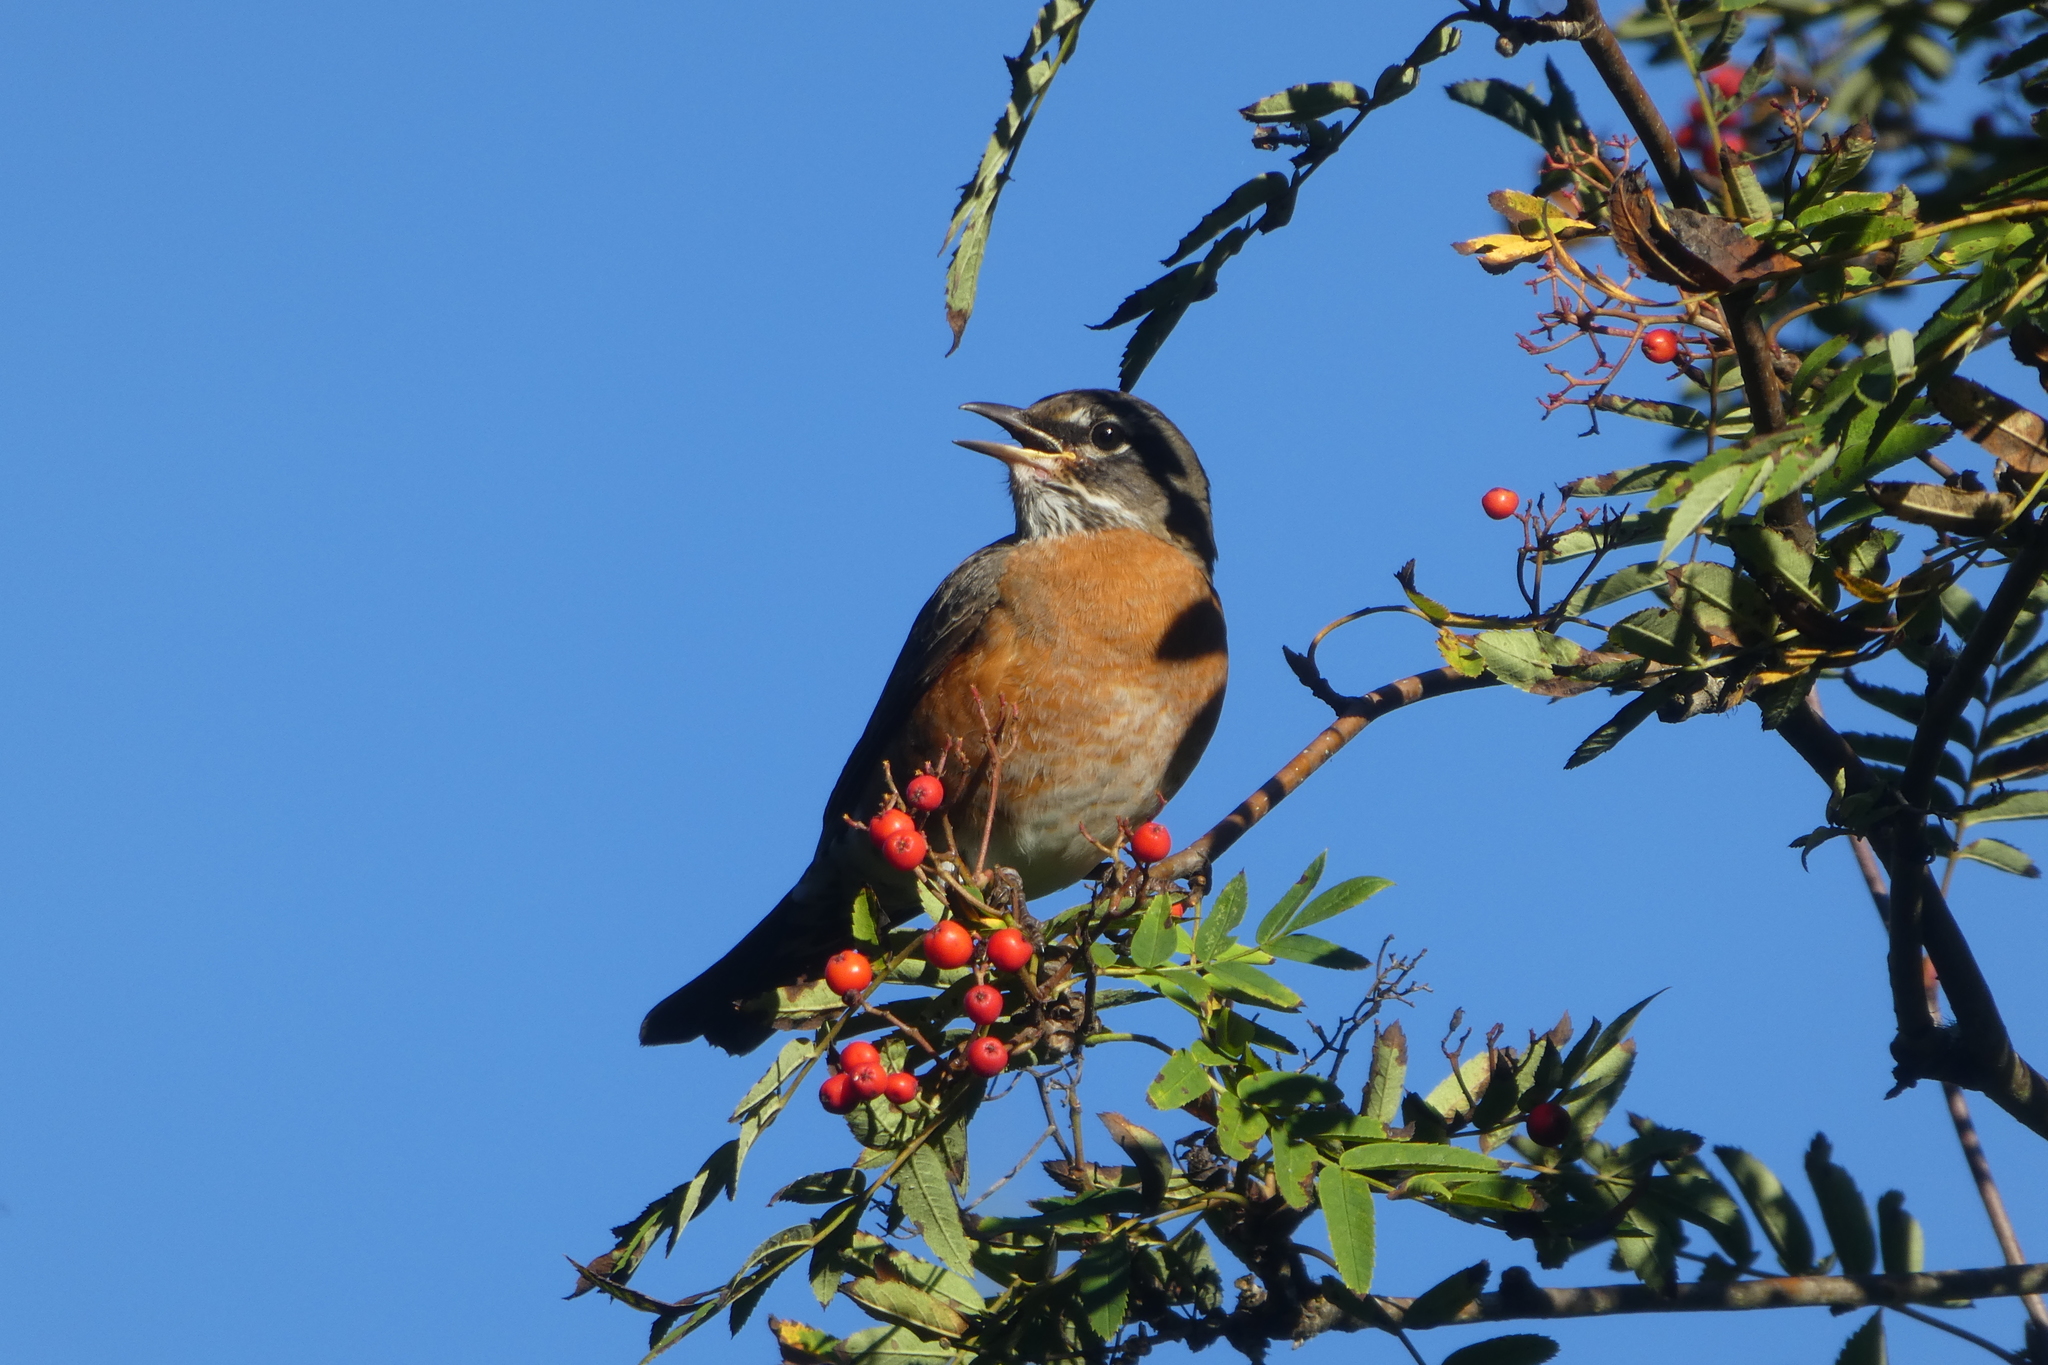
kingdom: Animalia
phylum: Chordata
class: Aves
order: Passeriformes
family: Turdidae
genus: Turdus
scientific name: Turdus migratorius
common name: American robin
